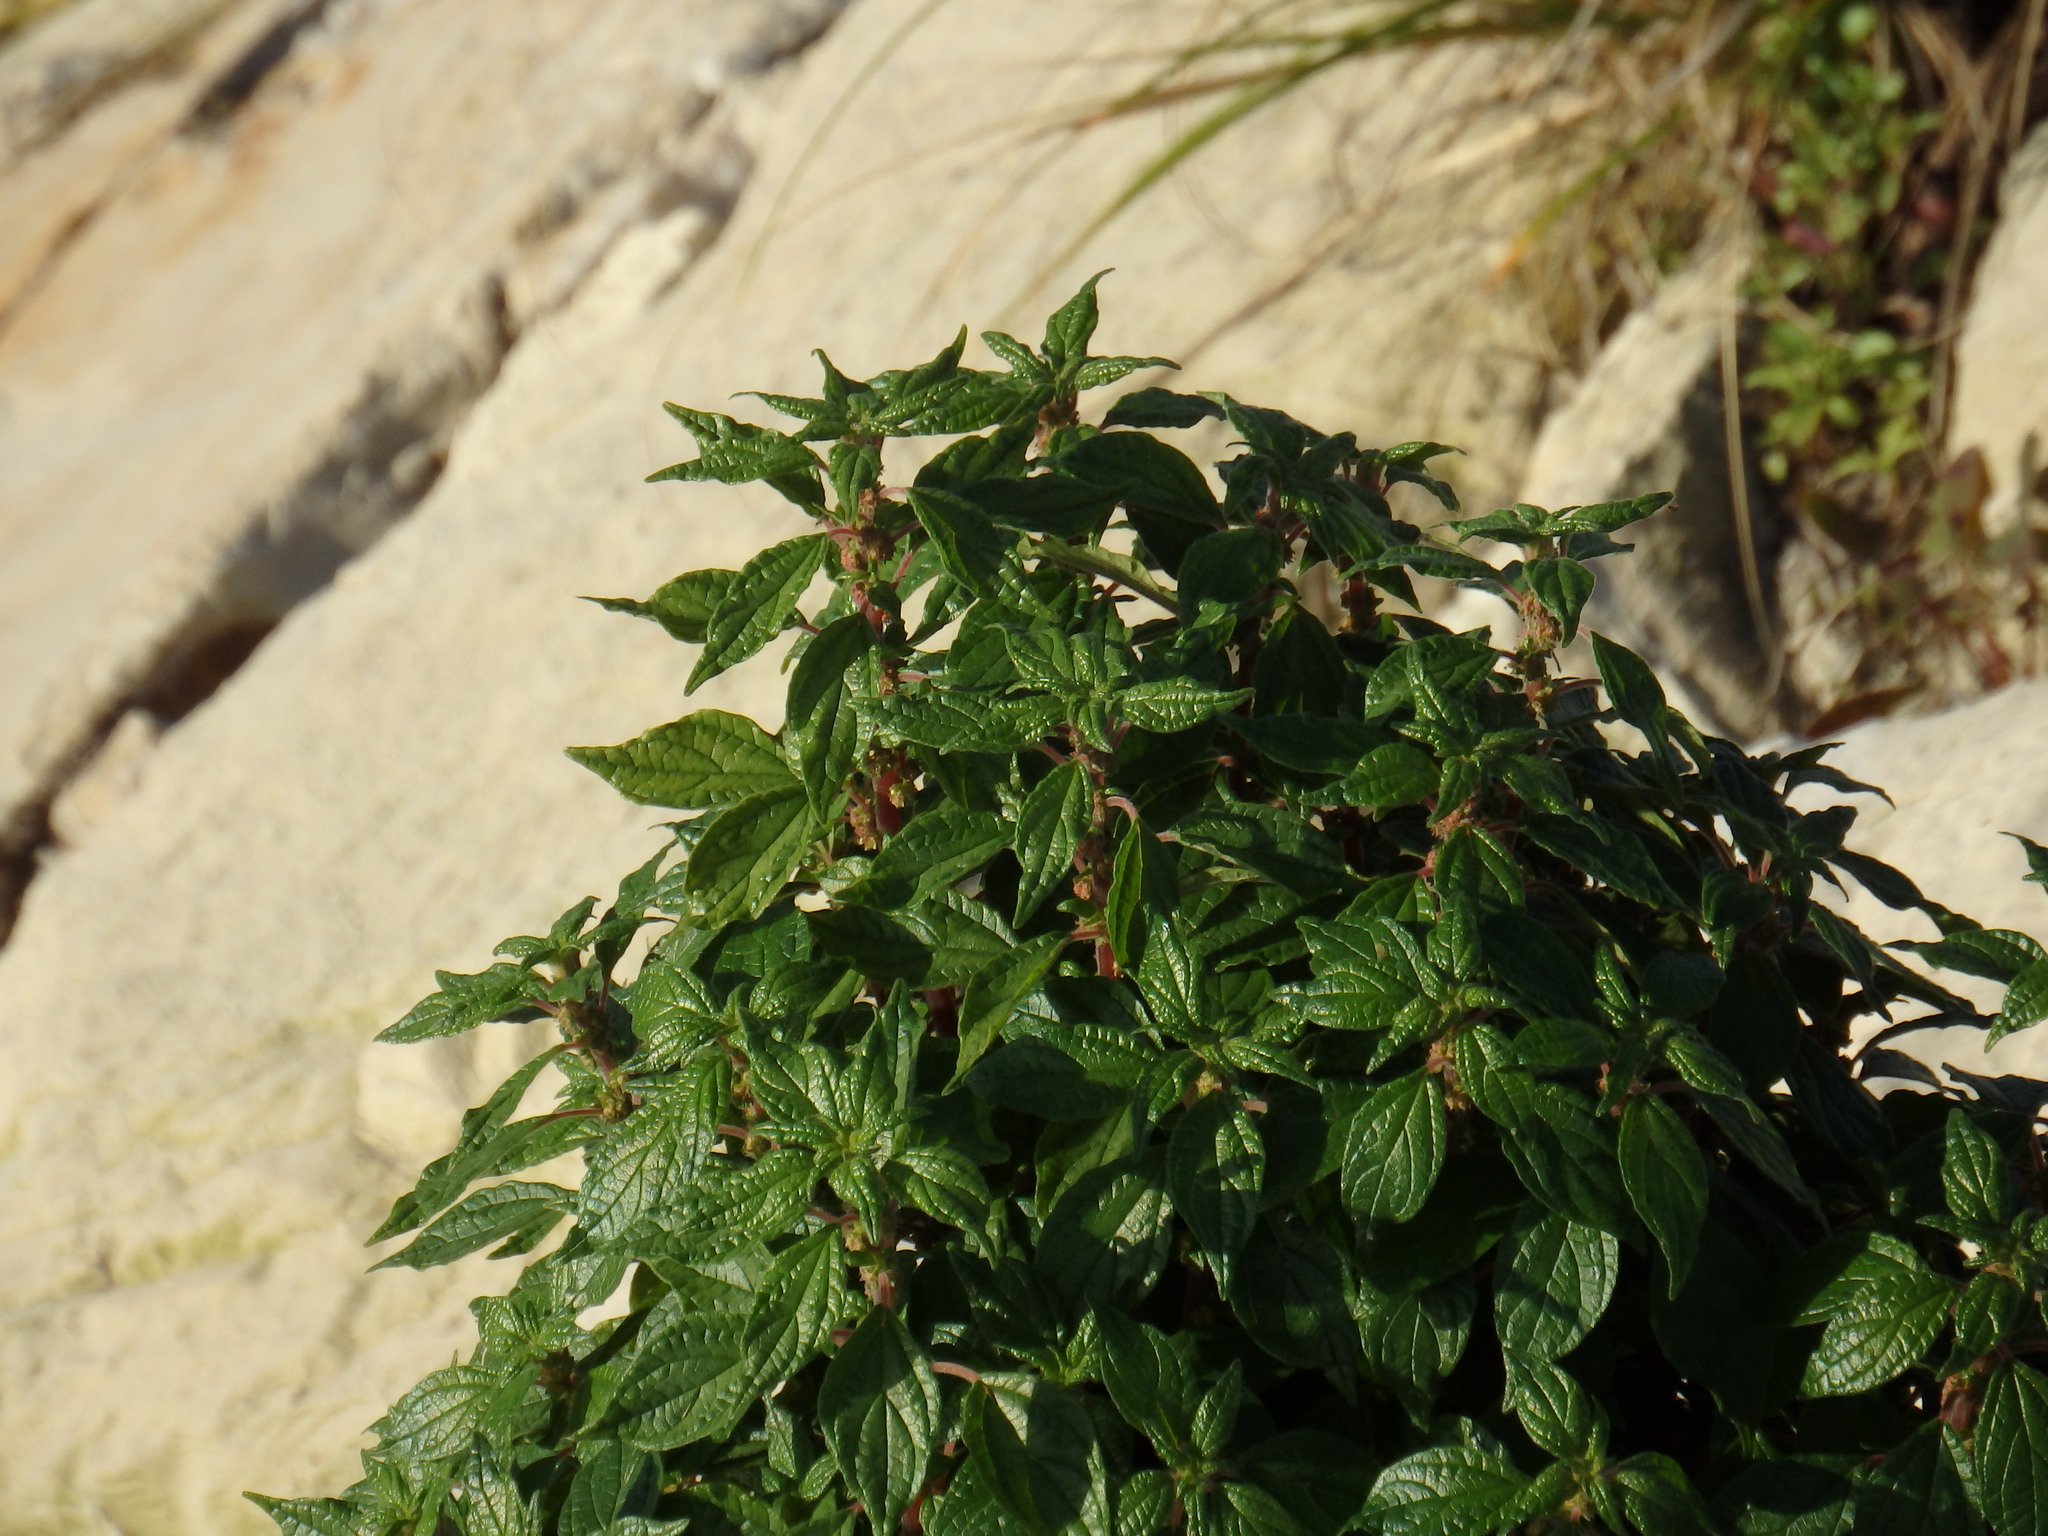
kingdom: Plantae
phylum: Tracheophyta
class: Magnoliopsida
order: Rosales
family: Urticaceae
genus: Parietaria
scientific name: Parietaria judaica
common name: Pellitory-of-the-wall
